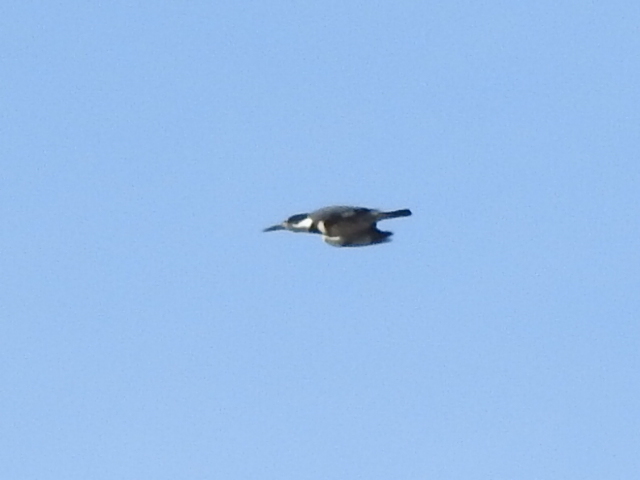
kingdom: Animalia
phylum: Chordata
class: Aves
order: Coraciiformes
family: Alcedinidae
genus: Megaceryle
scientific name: Megaceryle alcyon
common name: Belted kingfisher
